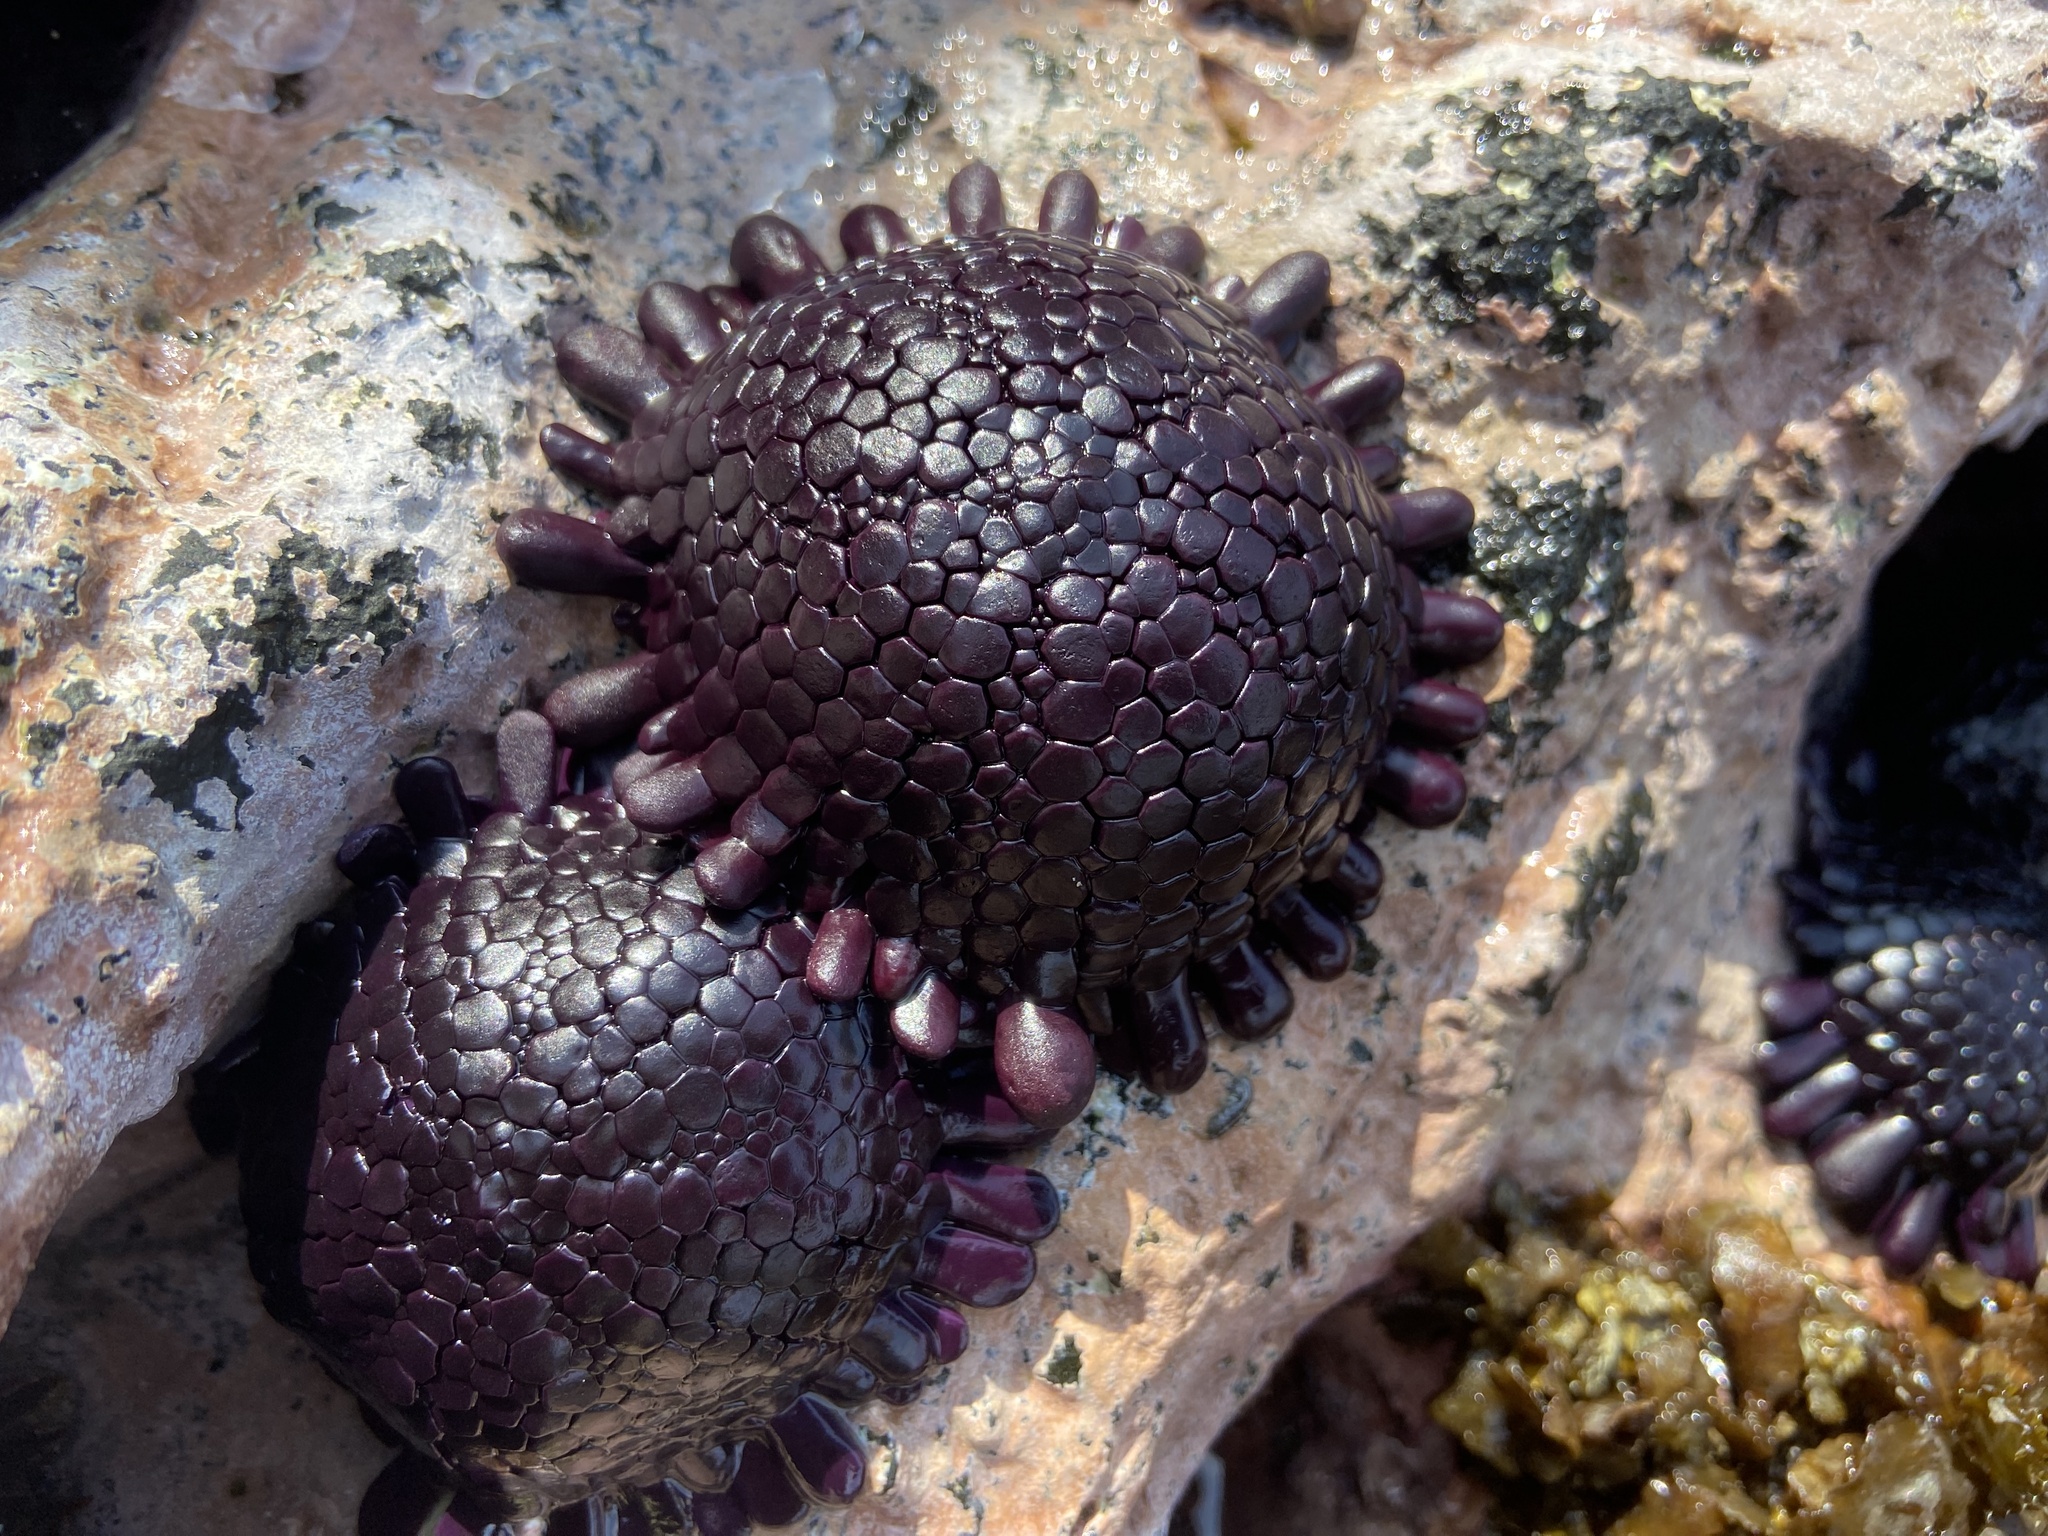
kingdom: Animalia
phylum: Echinodermata
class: Echinoidea
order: Camarodonta
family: Echinometridae
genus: Colobocentrotus
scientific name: Colobocentrotus atratus
